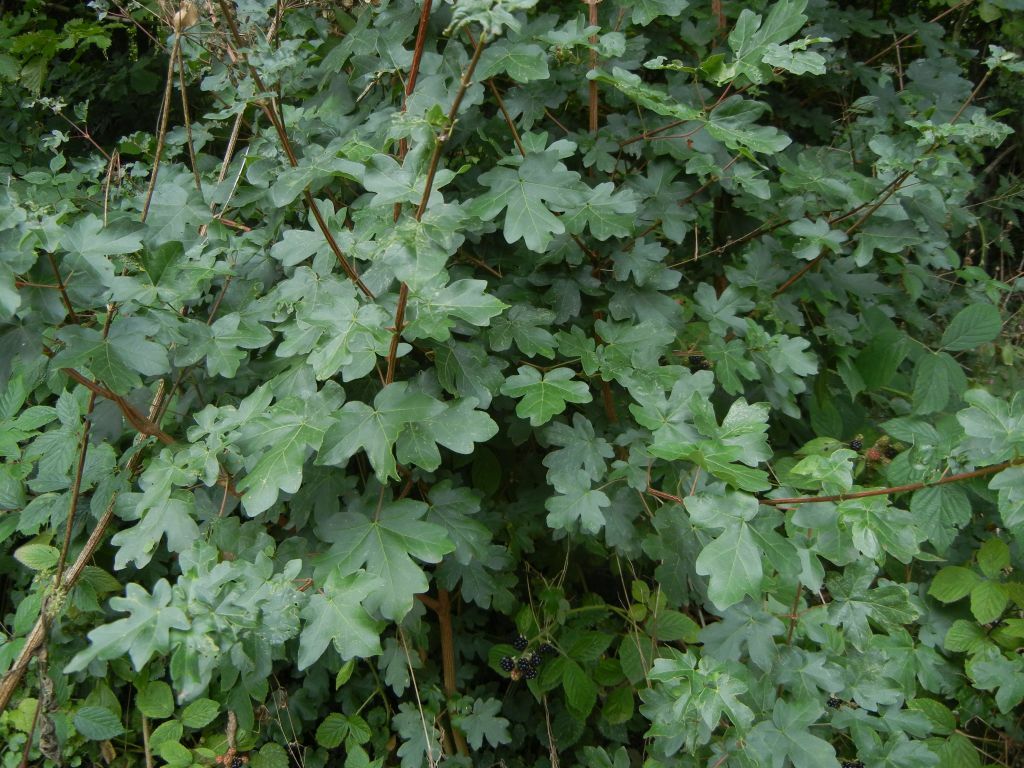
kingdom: Plantae
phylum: Tracheophyta
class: Magnoliopsida
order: Sapindales
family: Sapindaceae
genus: Acer
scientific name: Acer campestre
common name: Field maple
